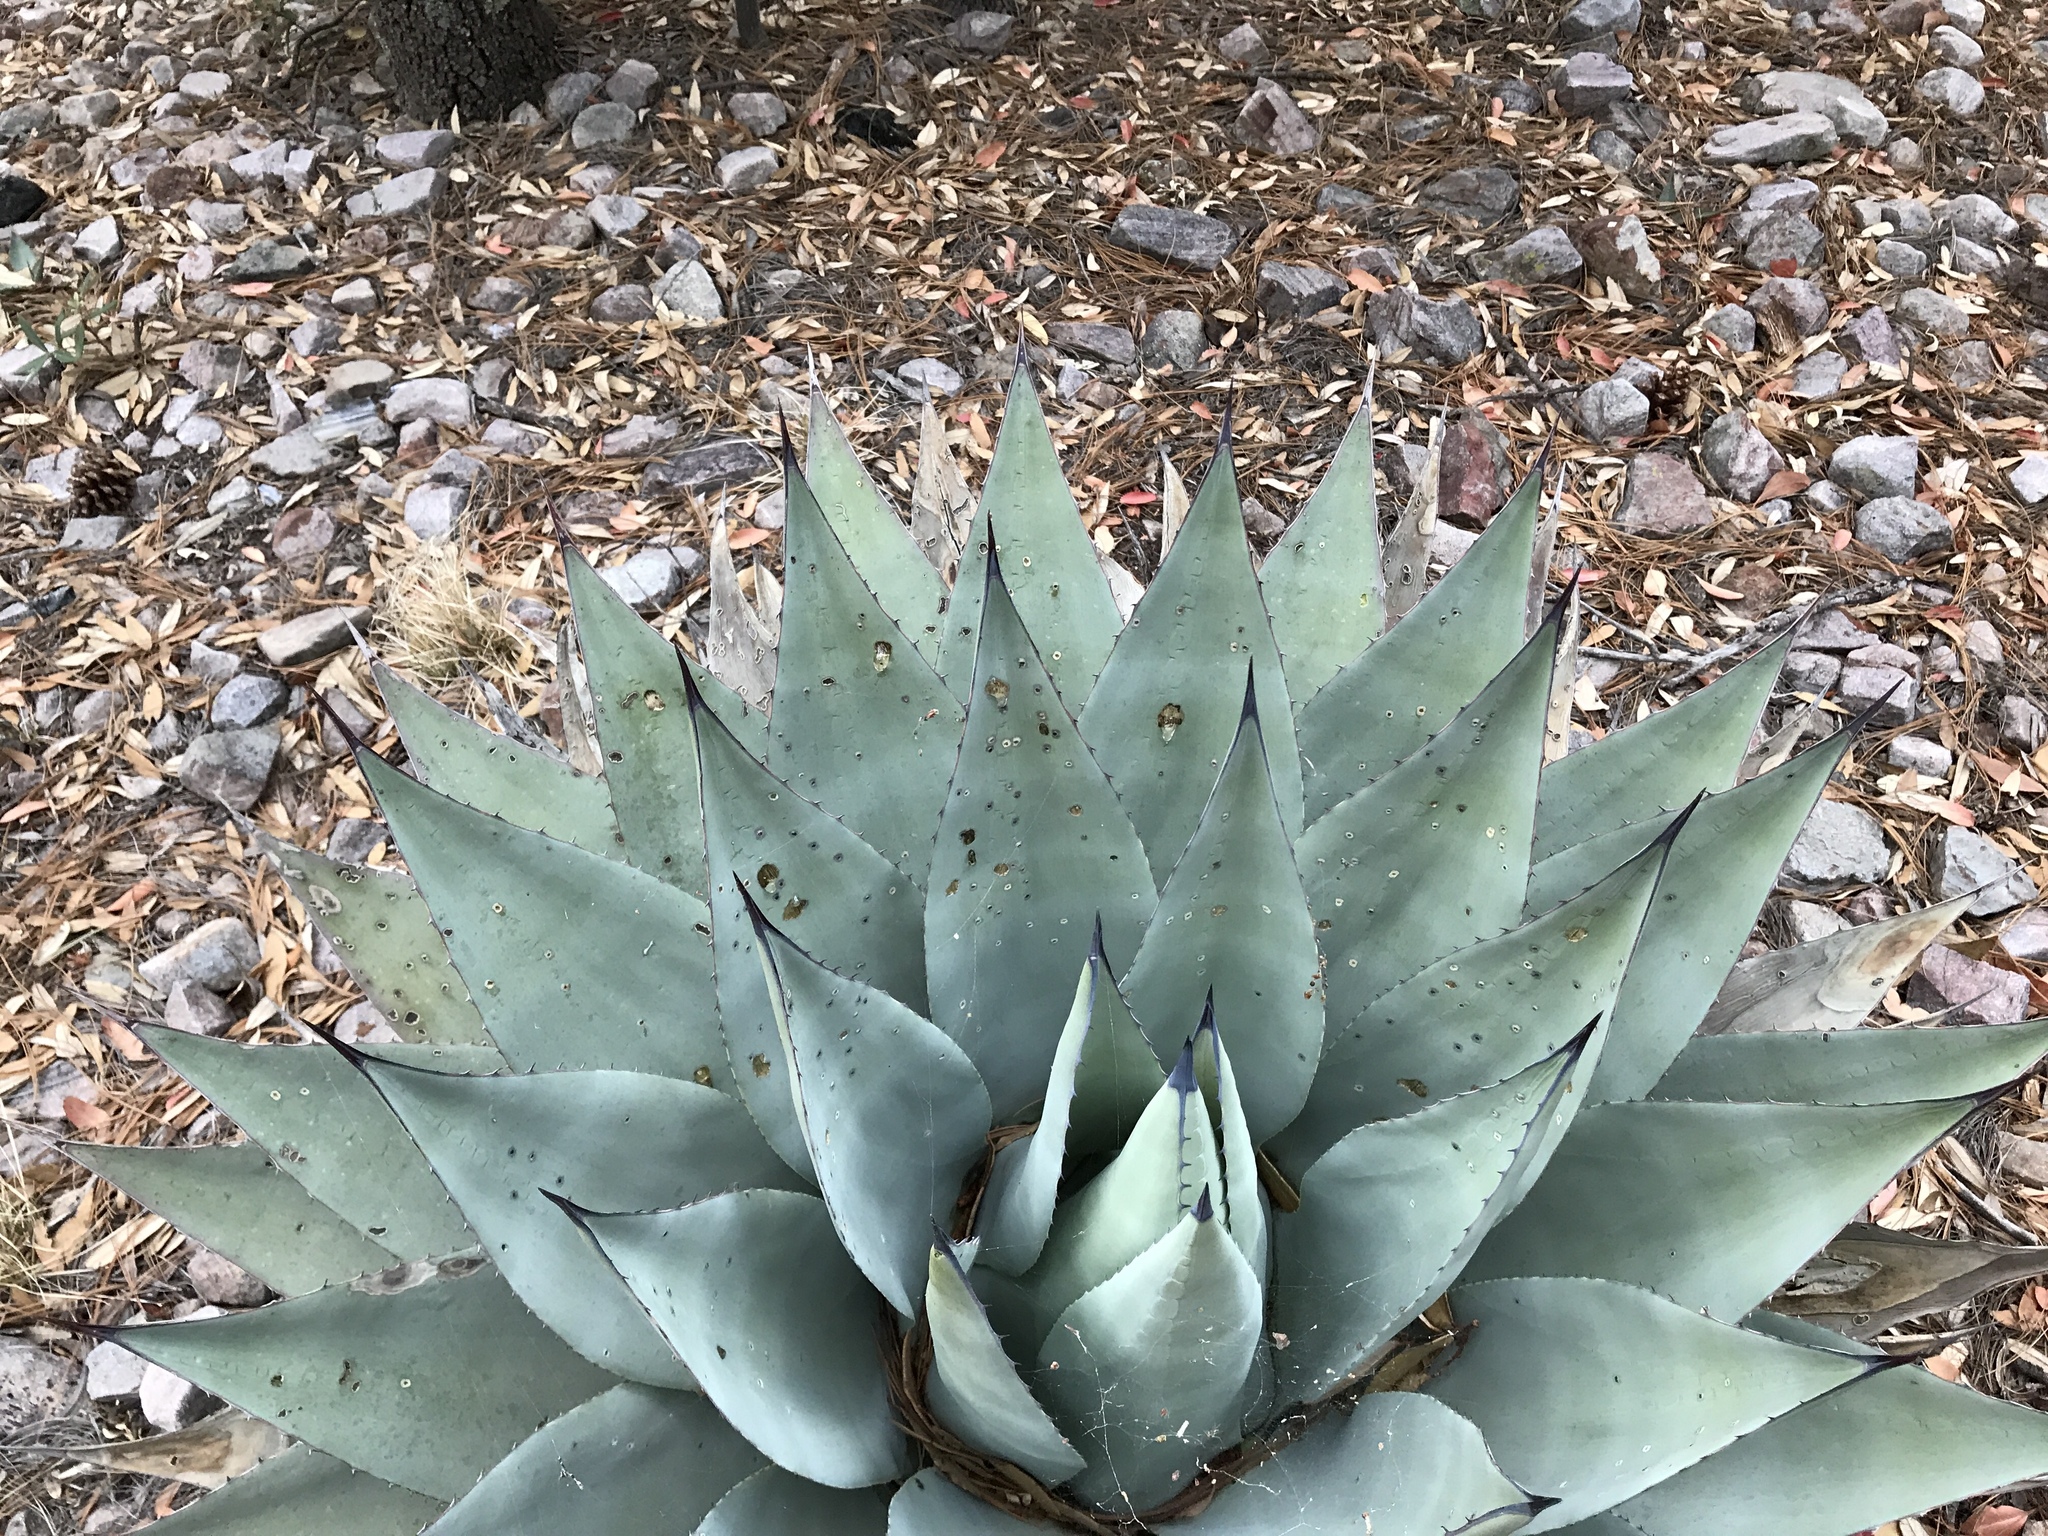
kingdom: Plantae
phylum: Tracheophyta
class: Liliopsida
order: Asparagales
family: Asparagaceae
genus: Agave
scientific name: Agave parryi
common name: Parry's agave
